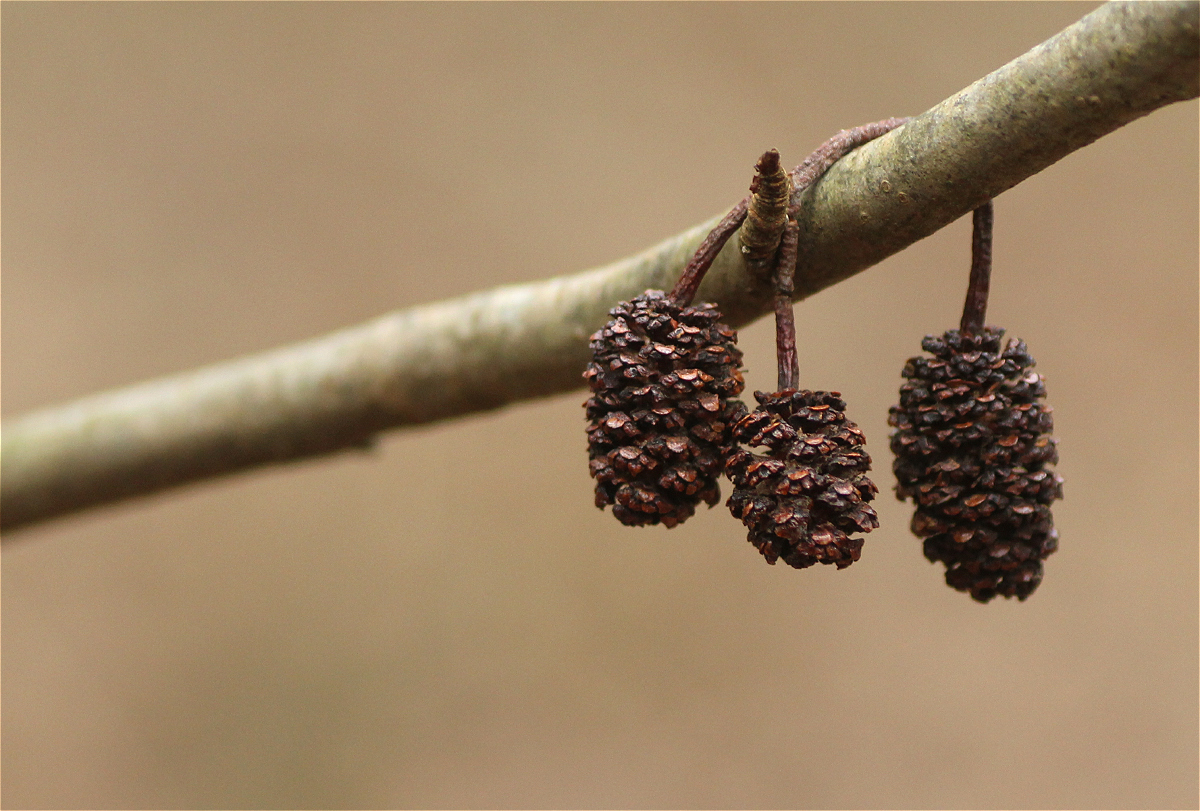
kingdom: Plantae
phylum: Tracheophyta
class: Magnoliopsida
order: Fagales
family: Betulaceae
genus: Alnus
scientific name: Alnus glutinosa
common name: Black alder
